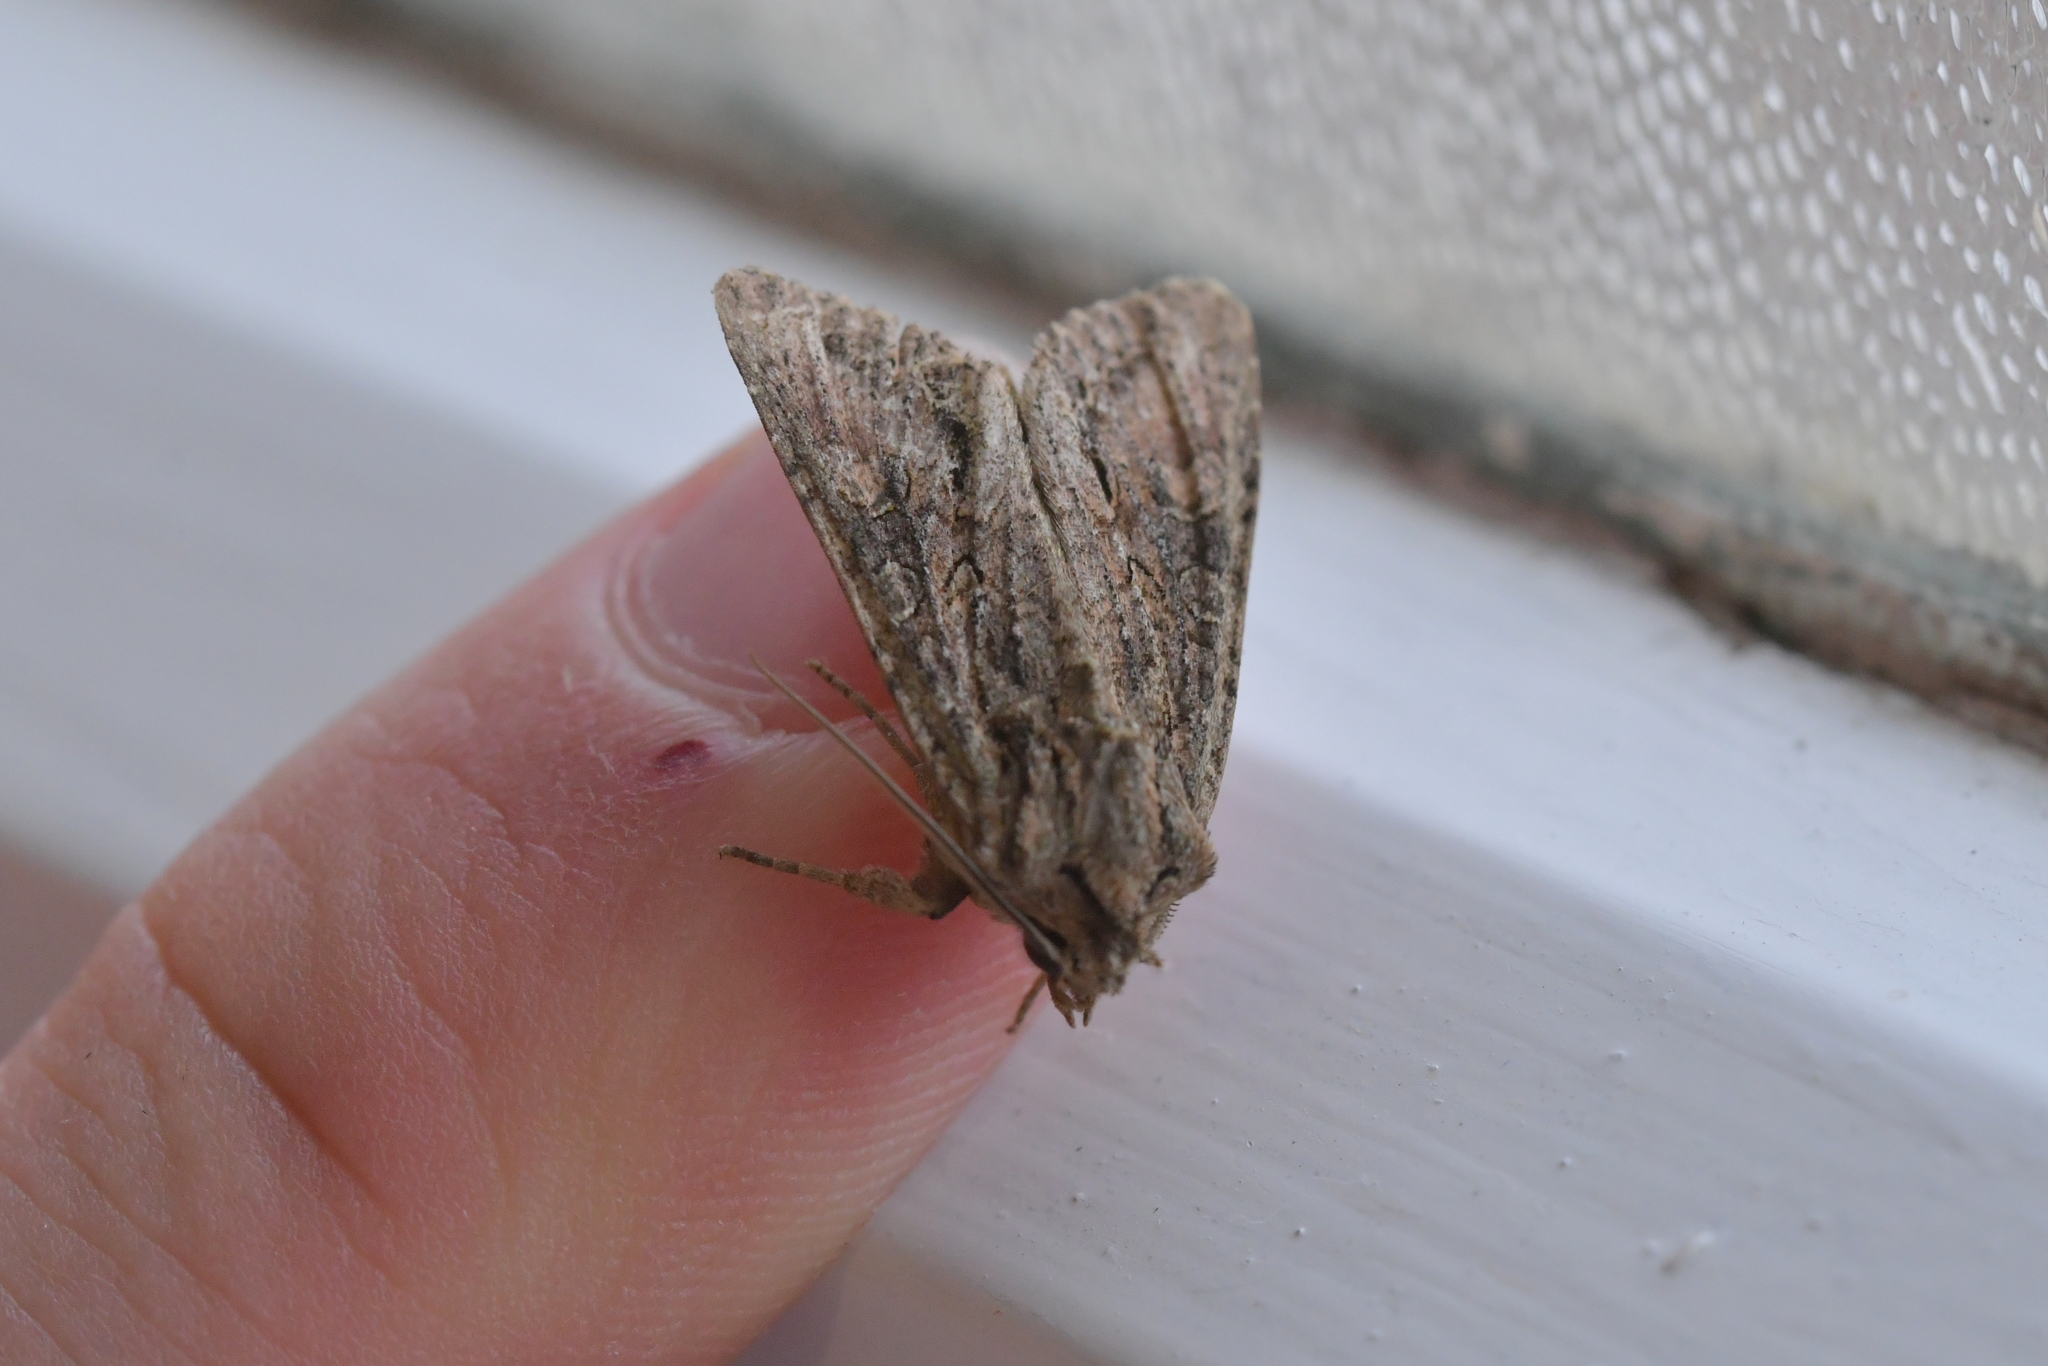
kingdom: Animalia
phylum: Arthropoda
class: Insecta
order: Lepidoptera
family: Noctuidae
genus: Ichneutica
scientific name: Ichneutica mutans
